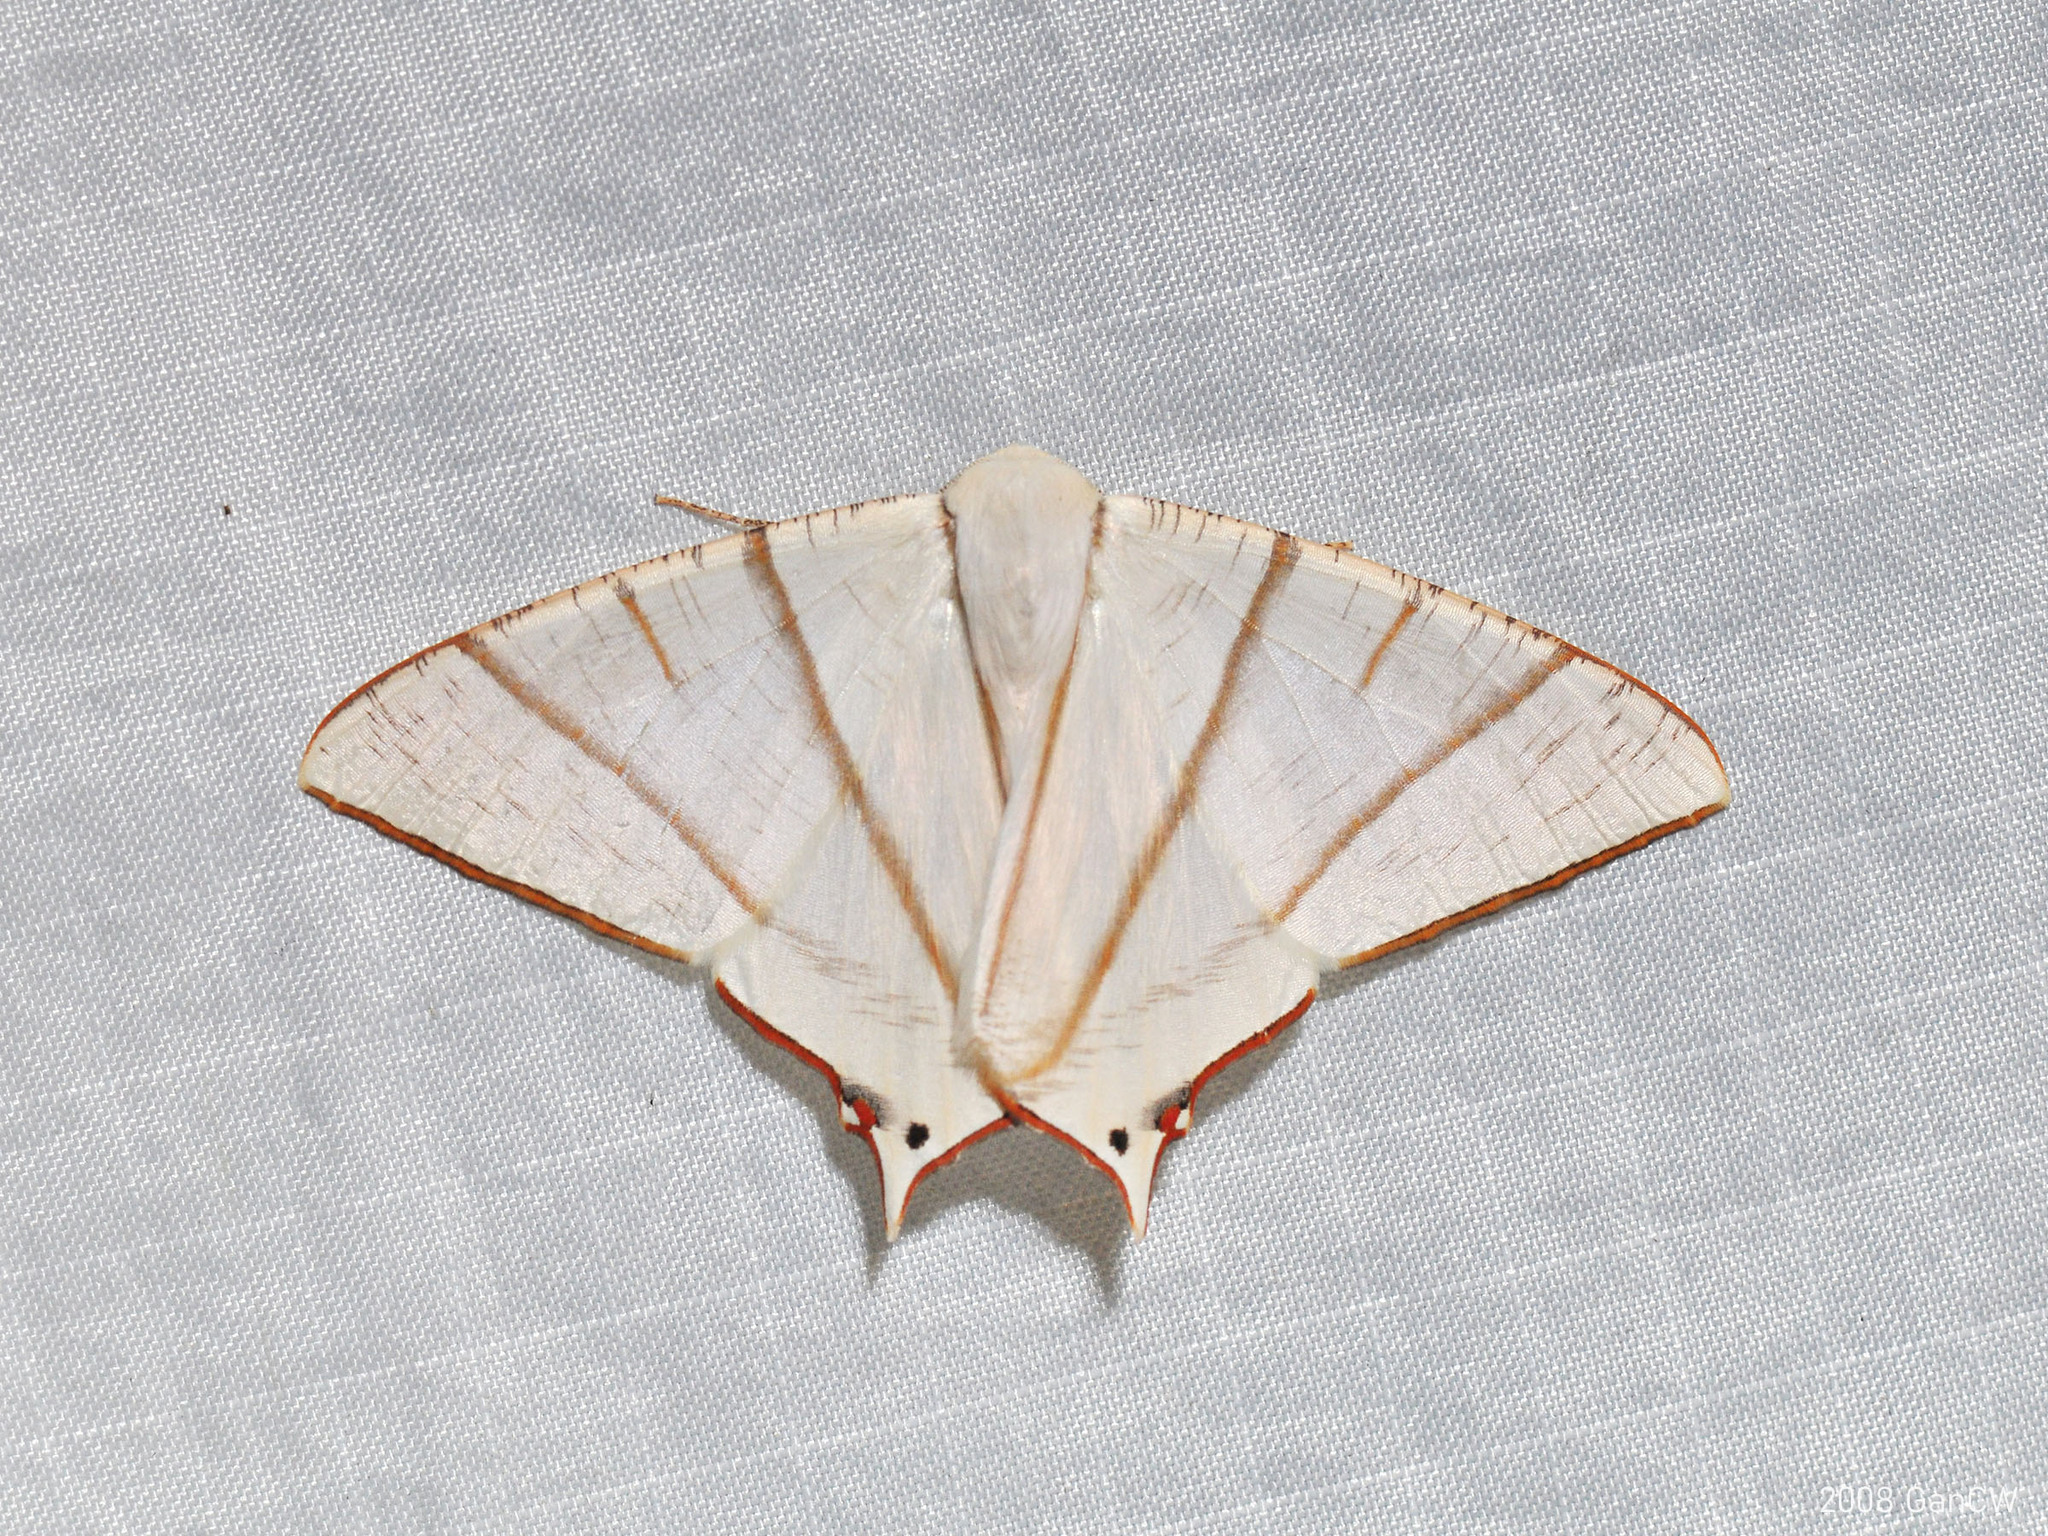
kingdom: Animalia
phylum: Arthropoda
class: Insecta
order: Lepidoptera
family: Geometridae
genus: Ourapteryx
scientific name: Ourapteryx picticaudata
